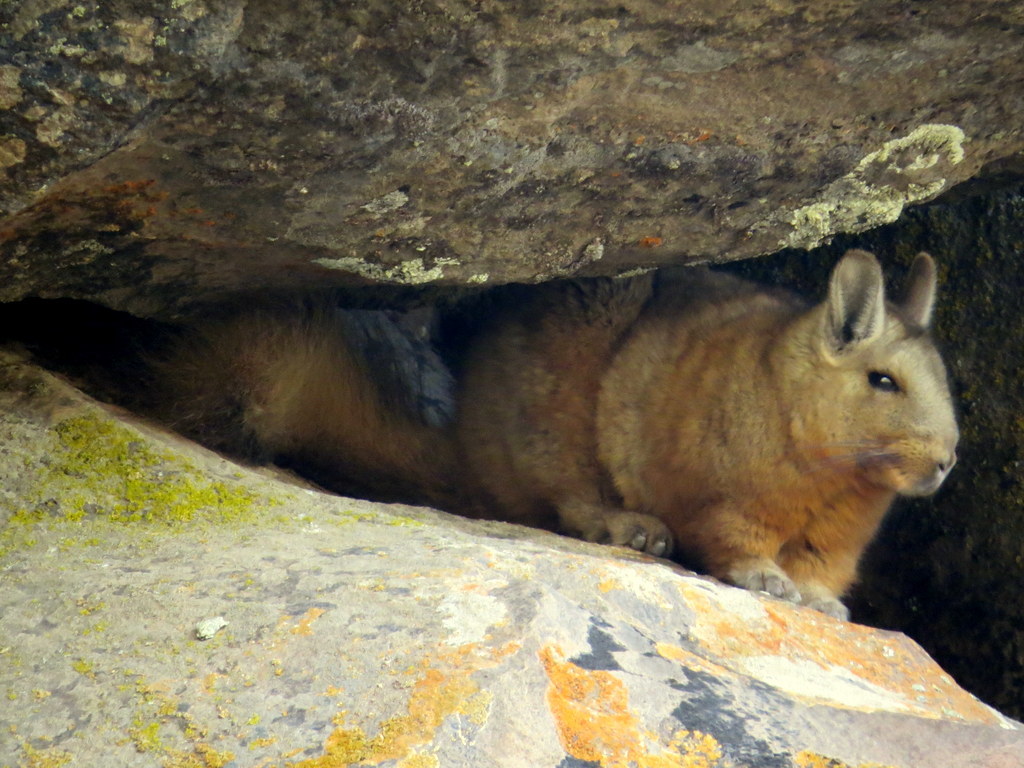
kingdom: Animalia
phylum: Chordata
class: Mammalia
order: Rodentia
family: Chinchillidae
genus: Lagidium
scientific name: Lagidium wolffsohni
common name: Wolffsohn's viscacha
